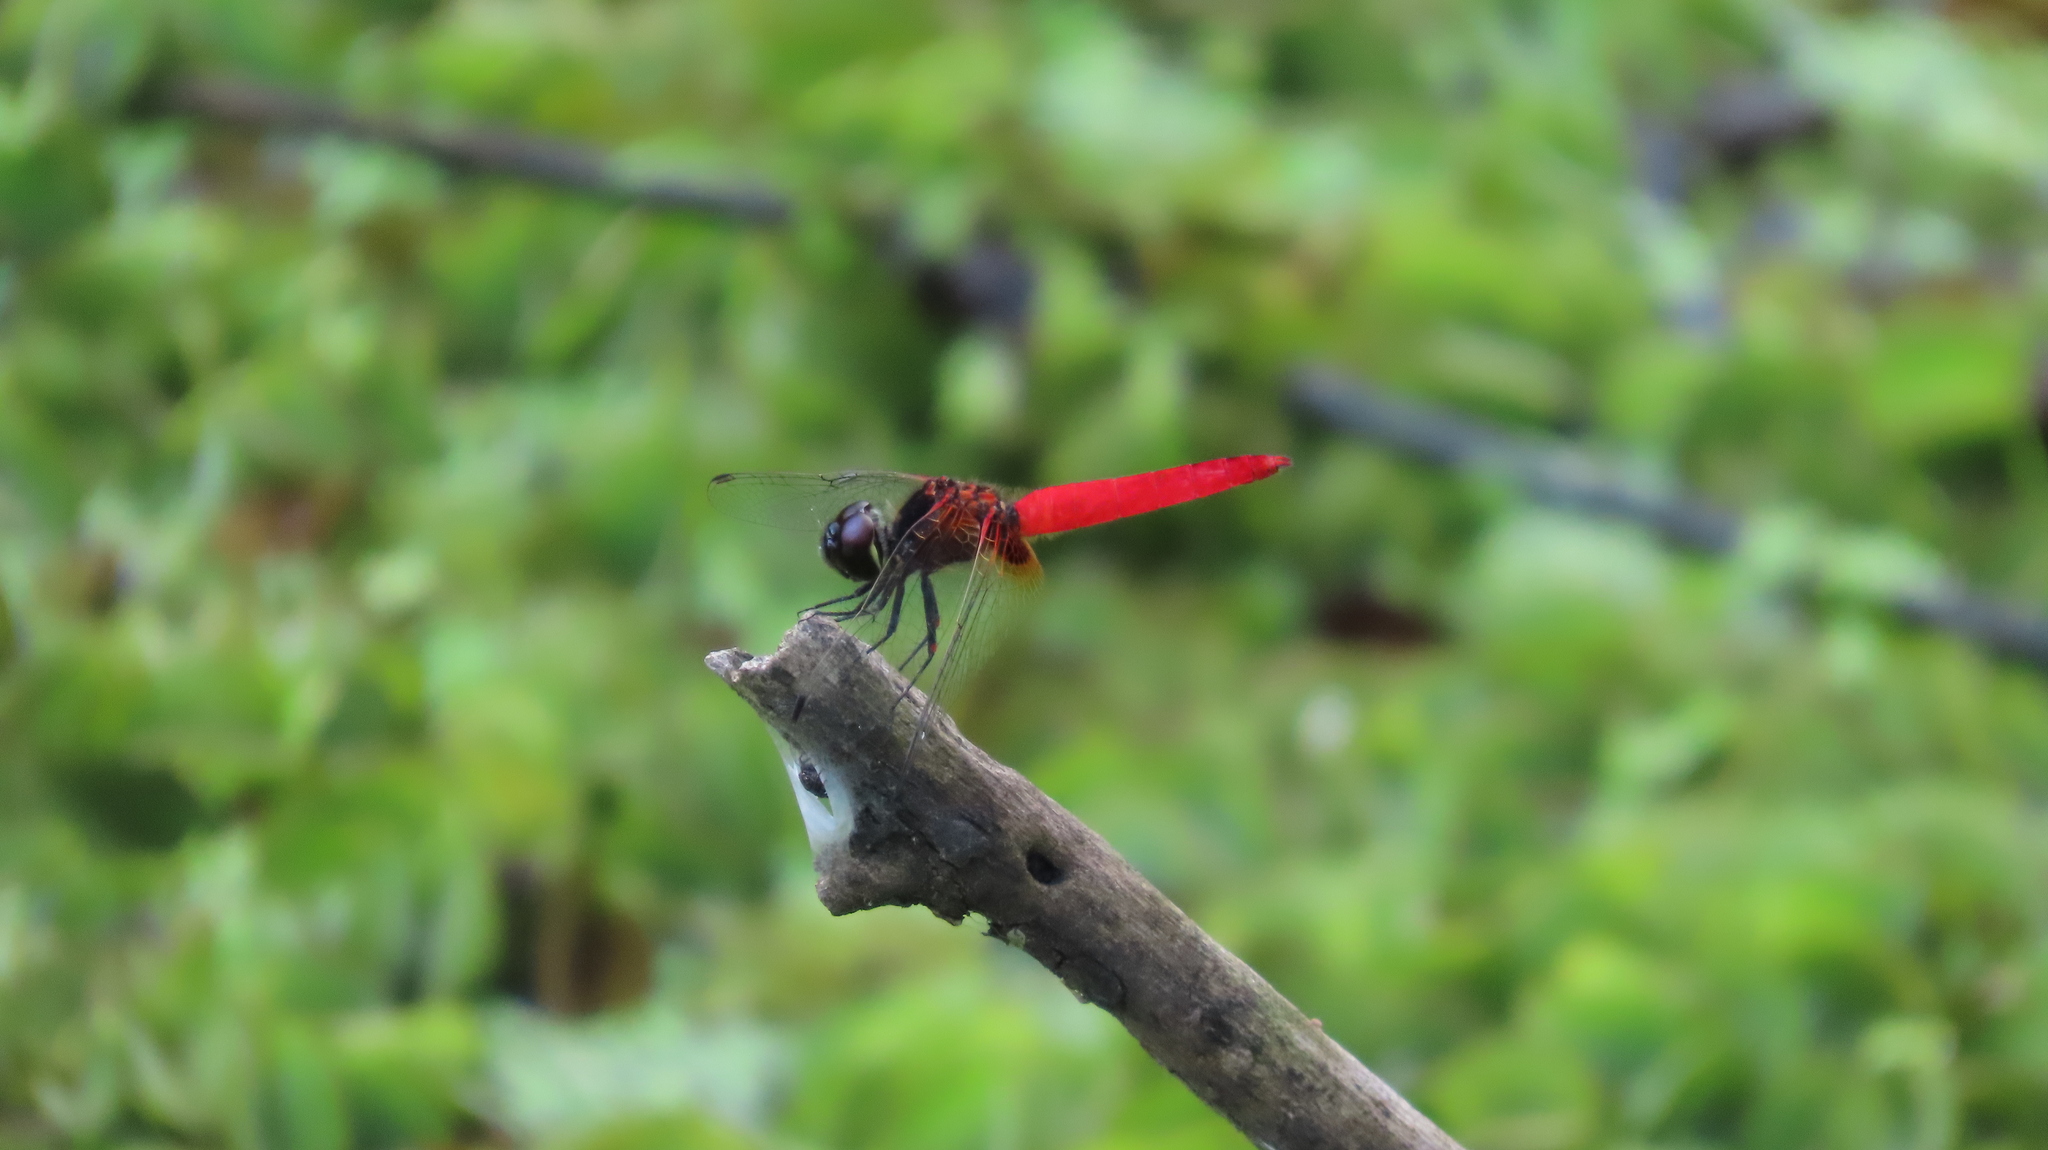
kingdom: Animalia
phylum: Arthropoda
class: Insecta
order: Odonata
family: Libellulidae
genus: Aethriamanta
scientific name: Aethriamanta brevipennis
